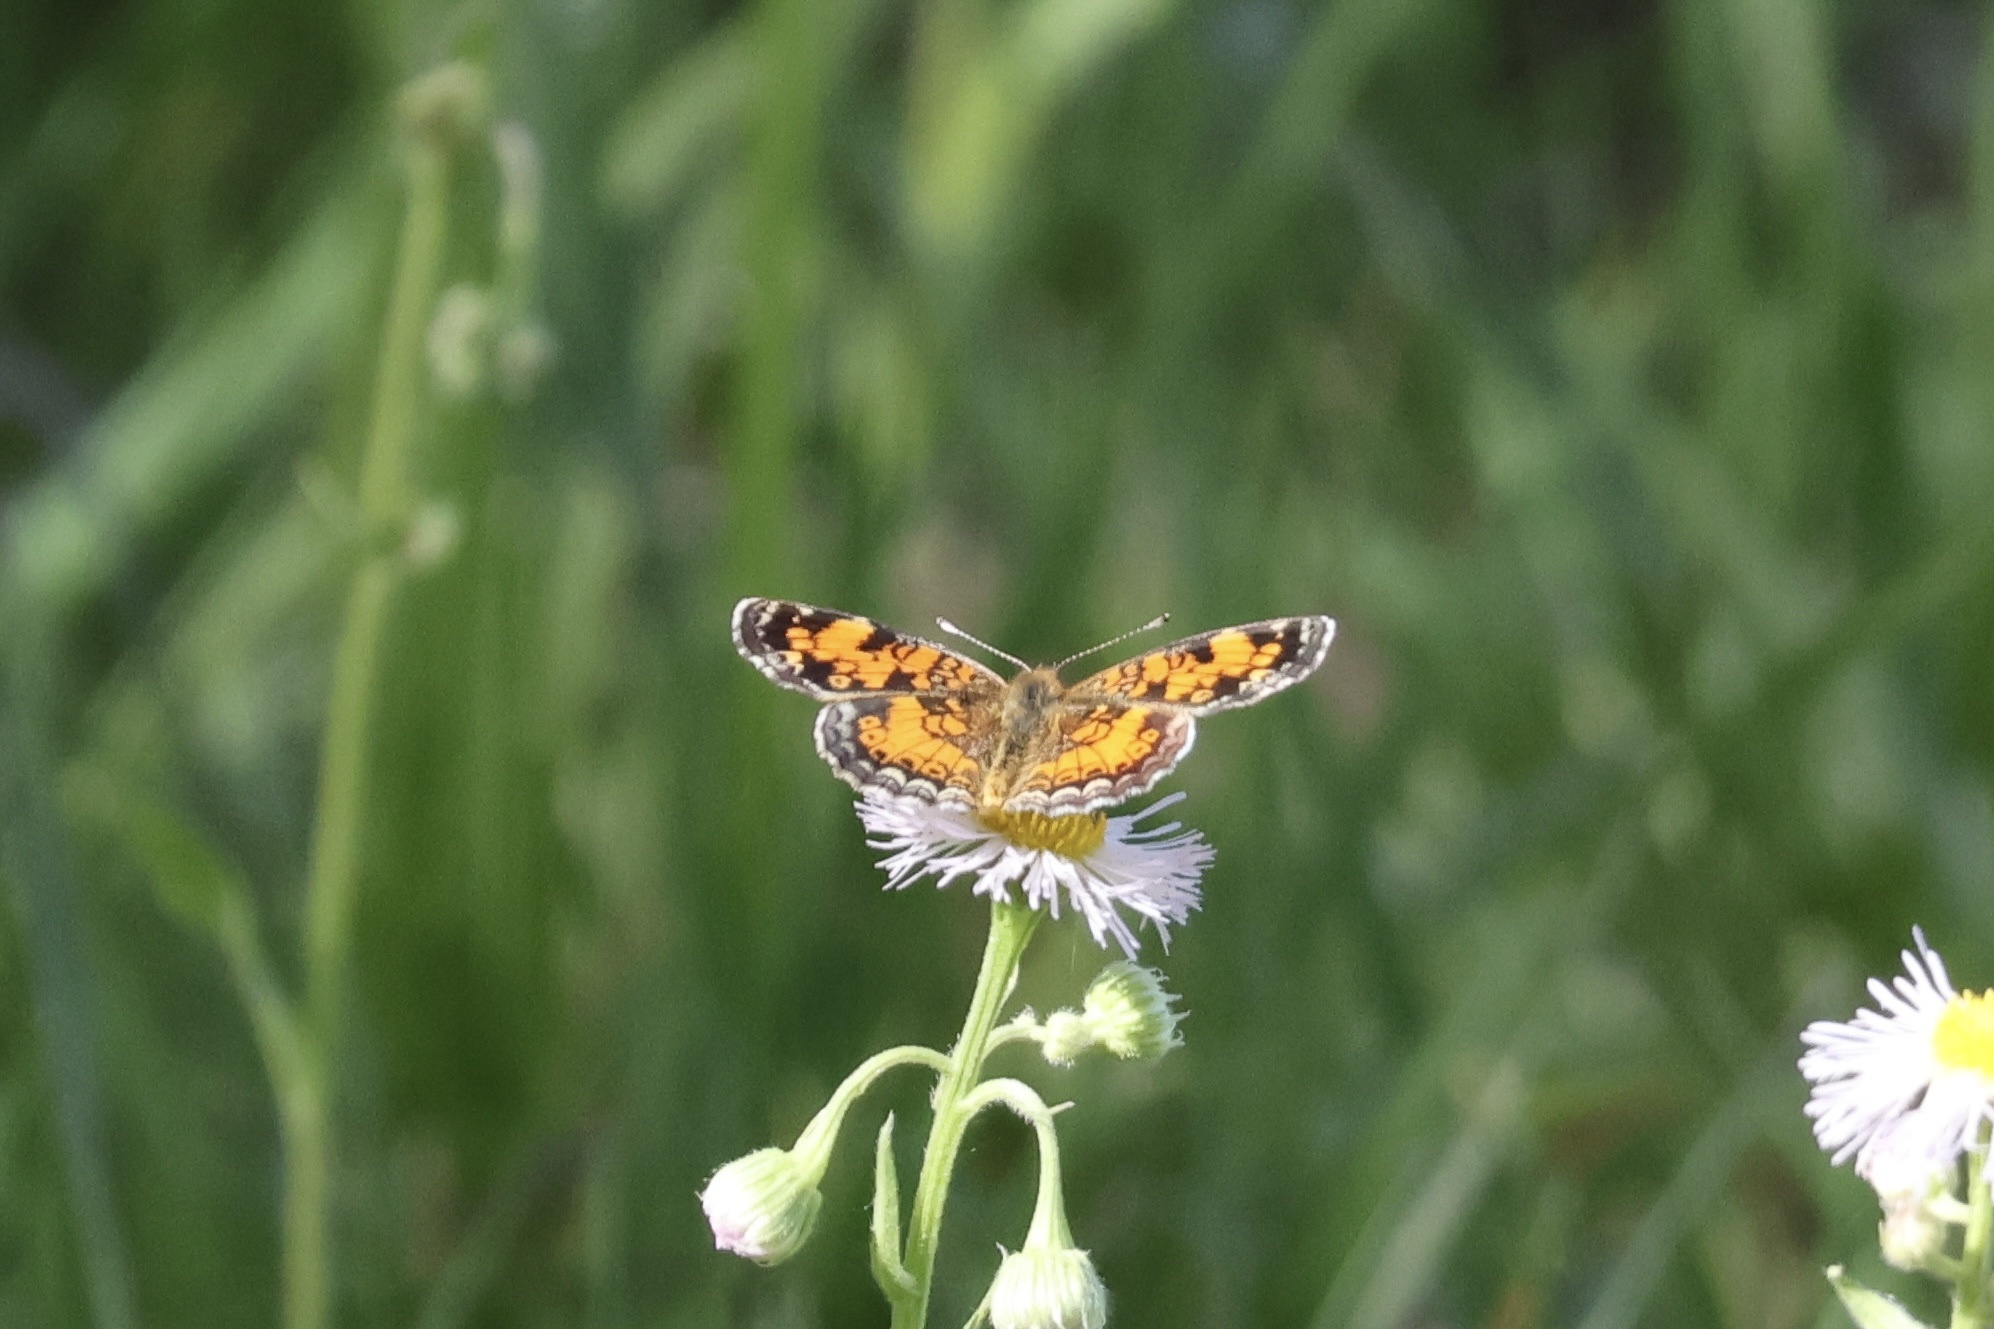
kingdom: Animalia
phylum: Arthropoda
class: Insecta
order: Lepidoptera
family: Nymphalidae
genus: Phyciodes
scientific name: Phyciodes tharos
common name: Pearl crescent
